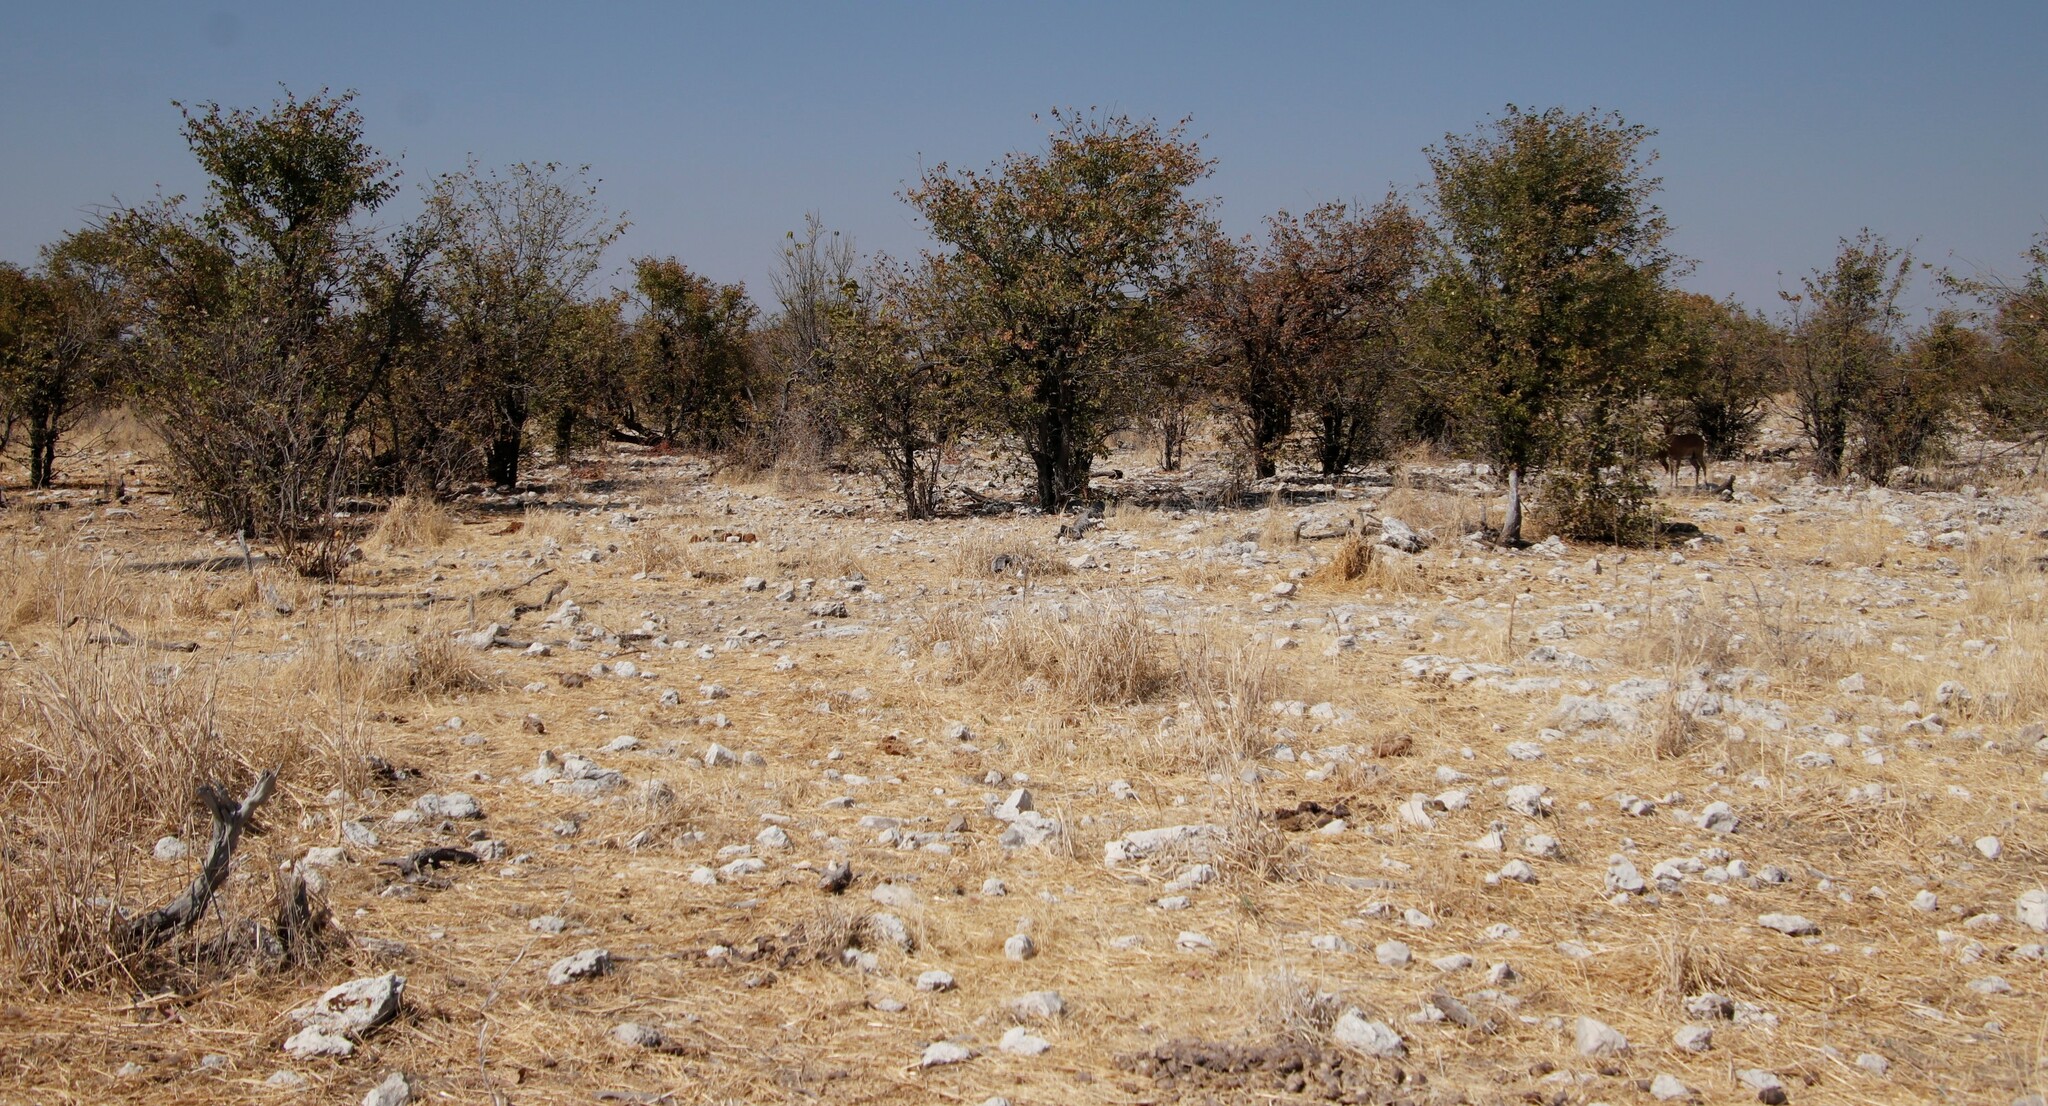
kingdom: Plantae
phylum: Tracheophyta
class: Magnoliopsida
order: Fabales
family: Fabaceae
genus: Colophospermum
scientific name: Colophospermum mopane
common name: Mopane
